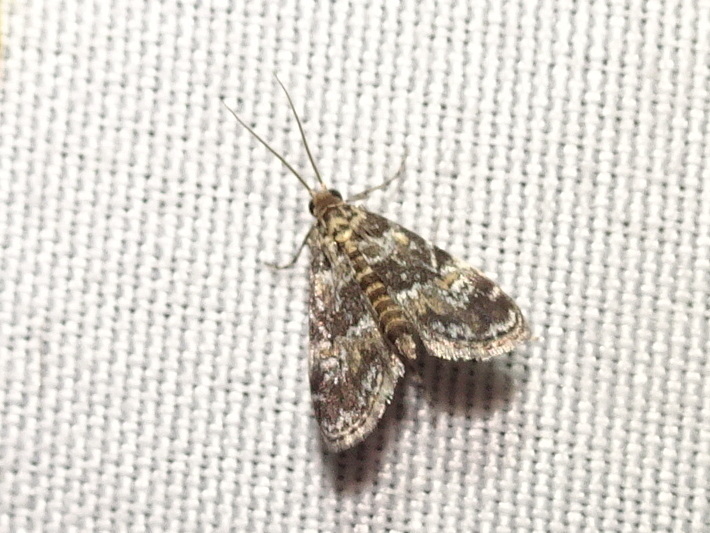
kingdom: Animalia
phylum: Arthropoda
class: Insecta
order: Lepidoptera
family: Crambidae
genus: Elophila
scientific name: Elophila obliteralis
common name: Waterlily leafcutter moth
